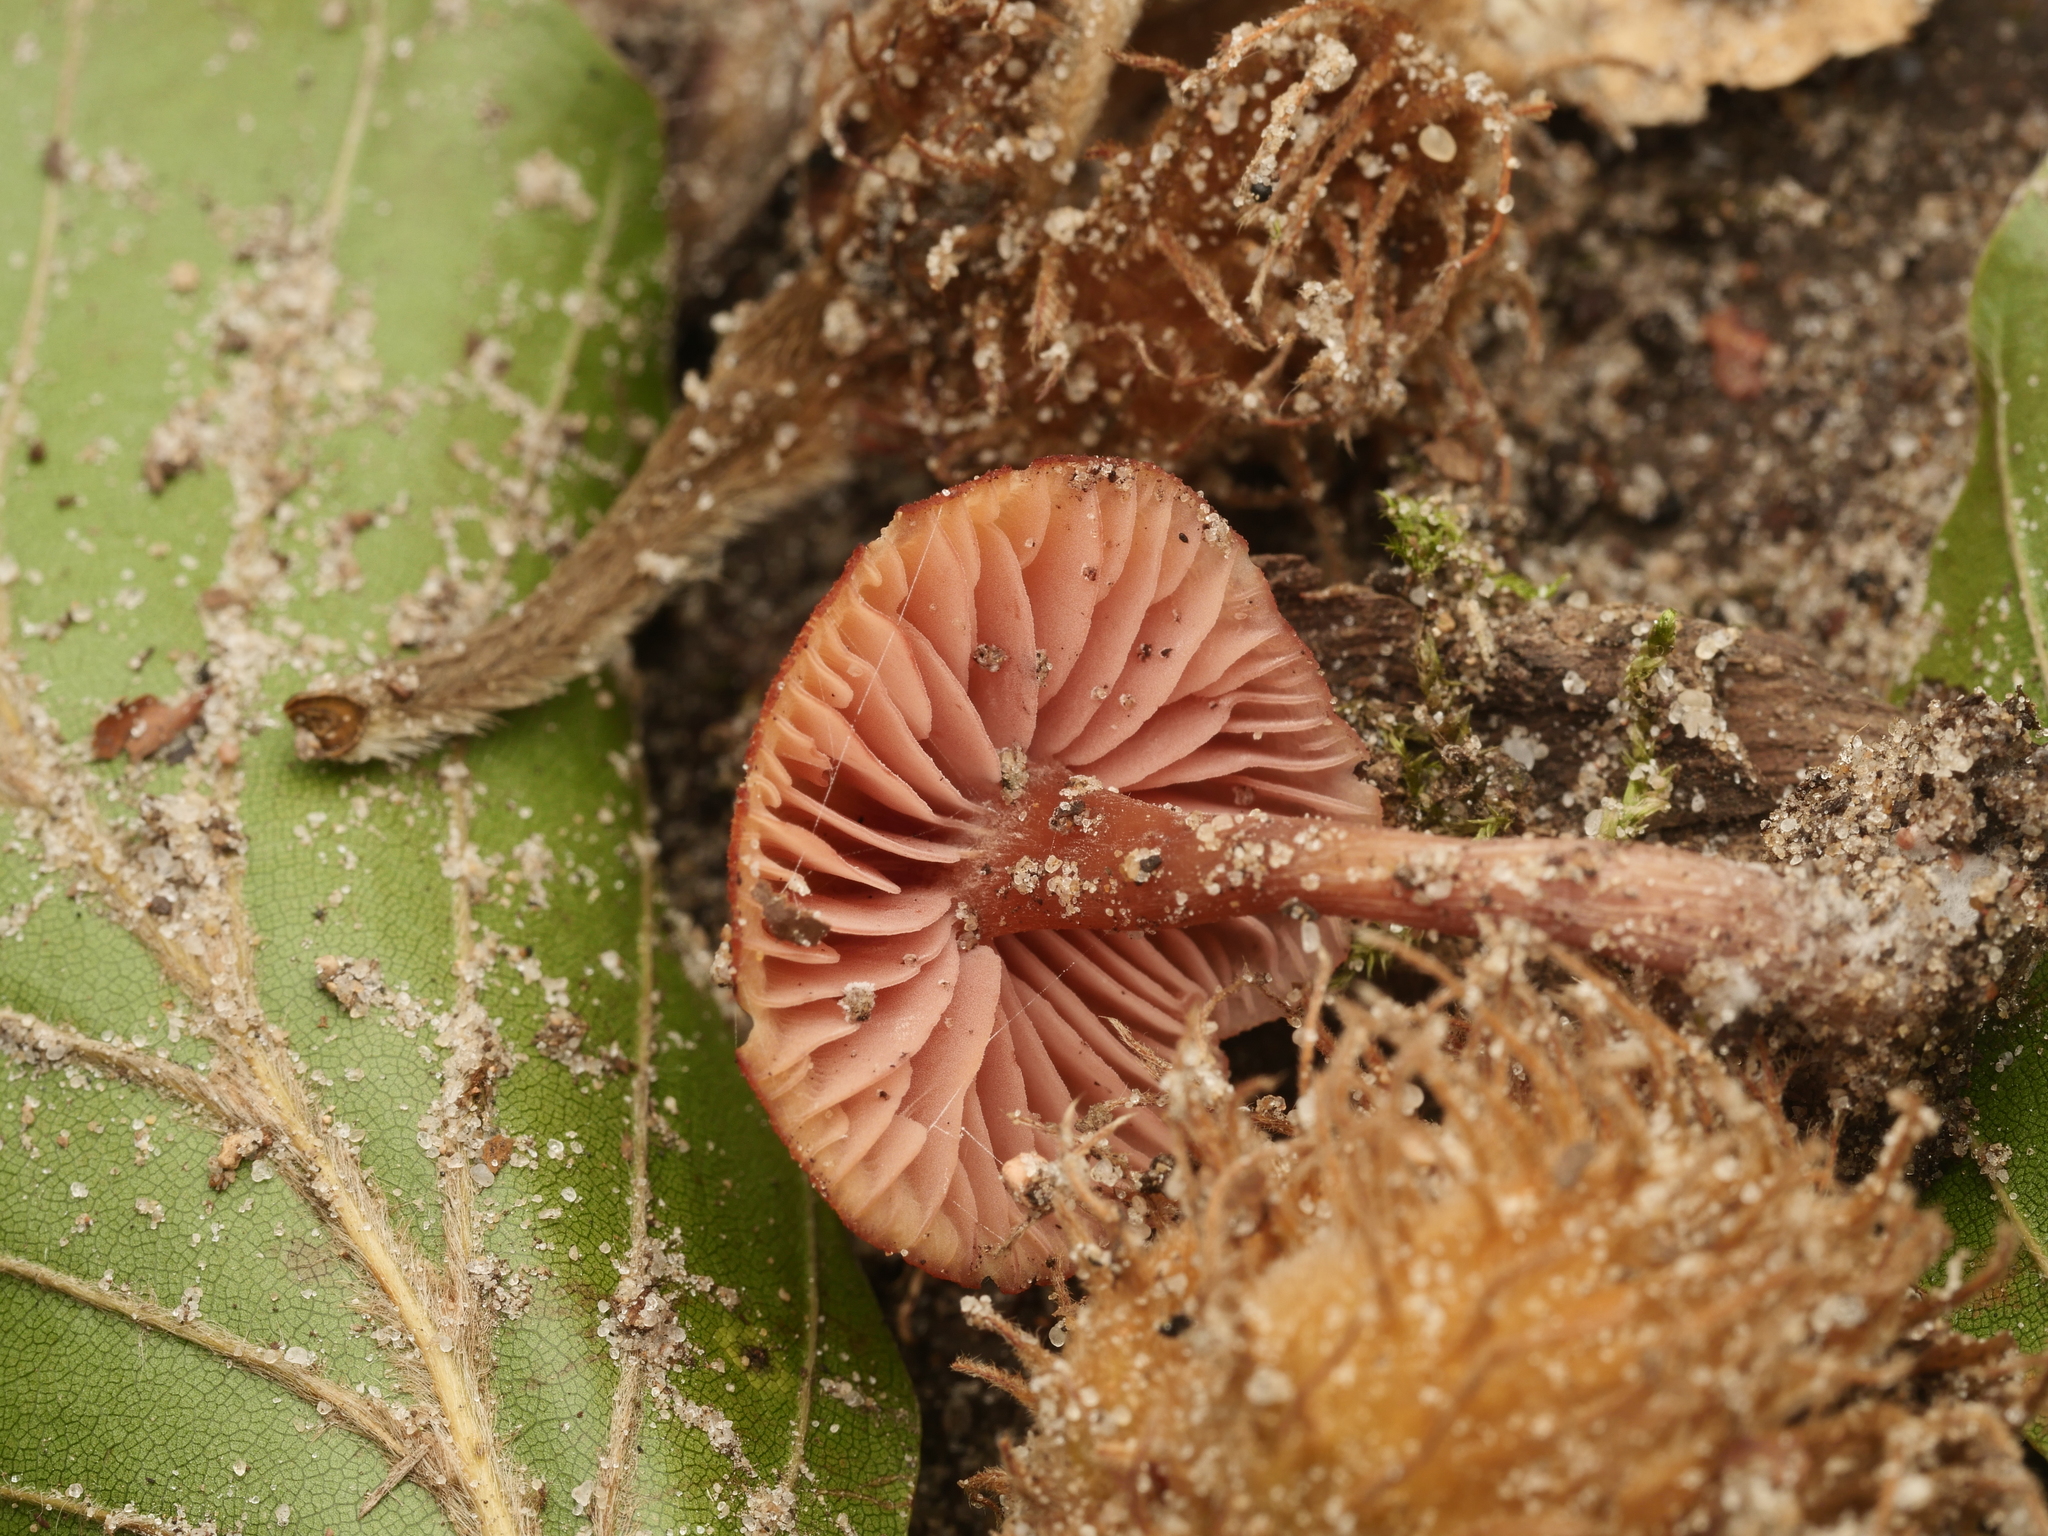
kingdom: Fungi
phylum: Basidiomycota
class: Agaricomycetes
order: Agaricales
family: Hydnangiaceae
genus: Laccaria
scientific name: Laccaria laccata
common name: Deceiver
